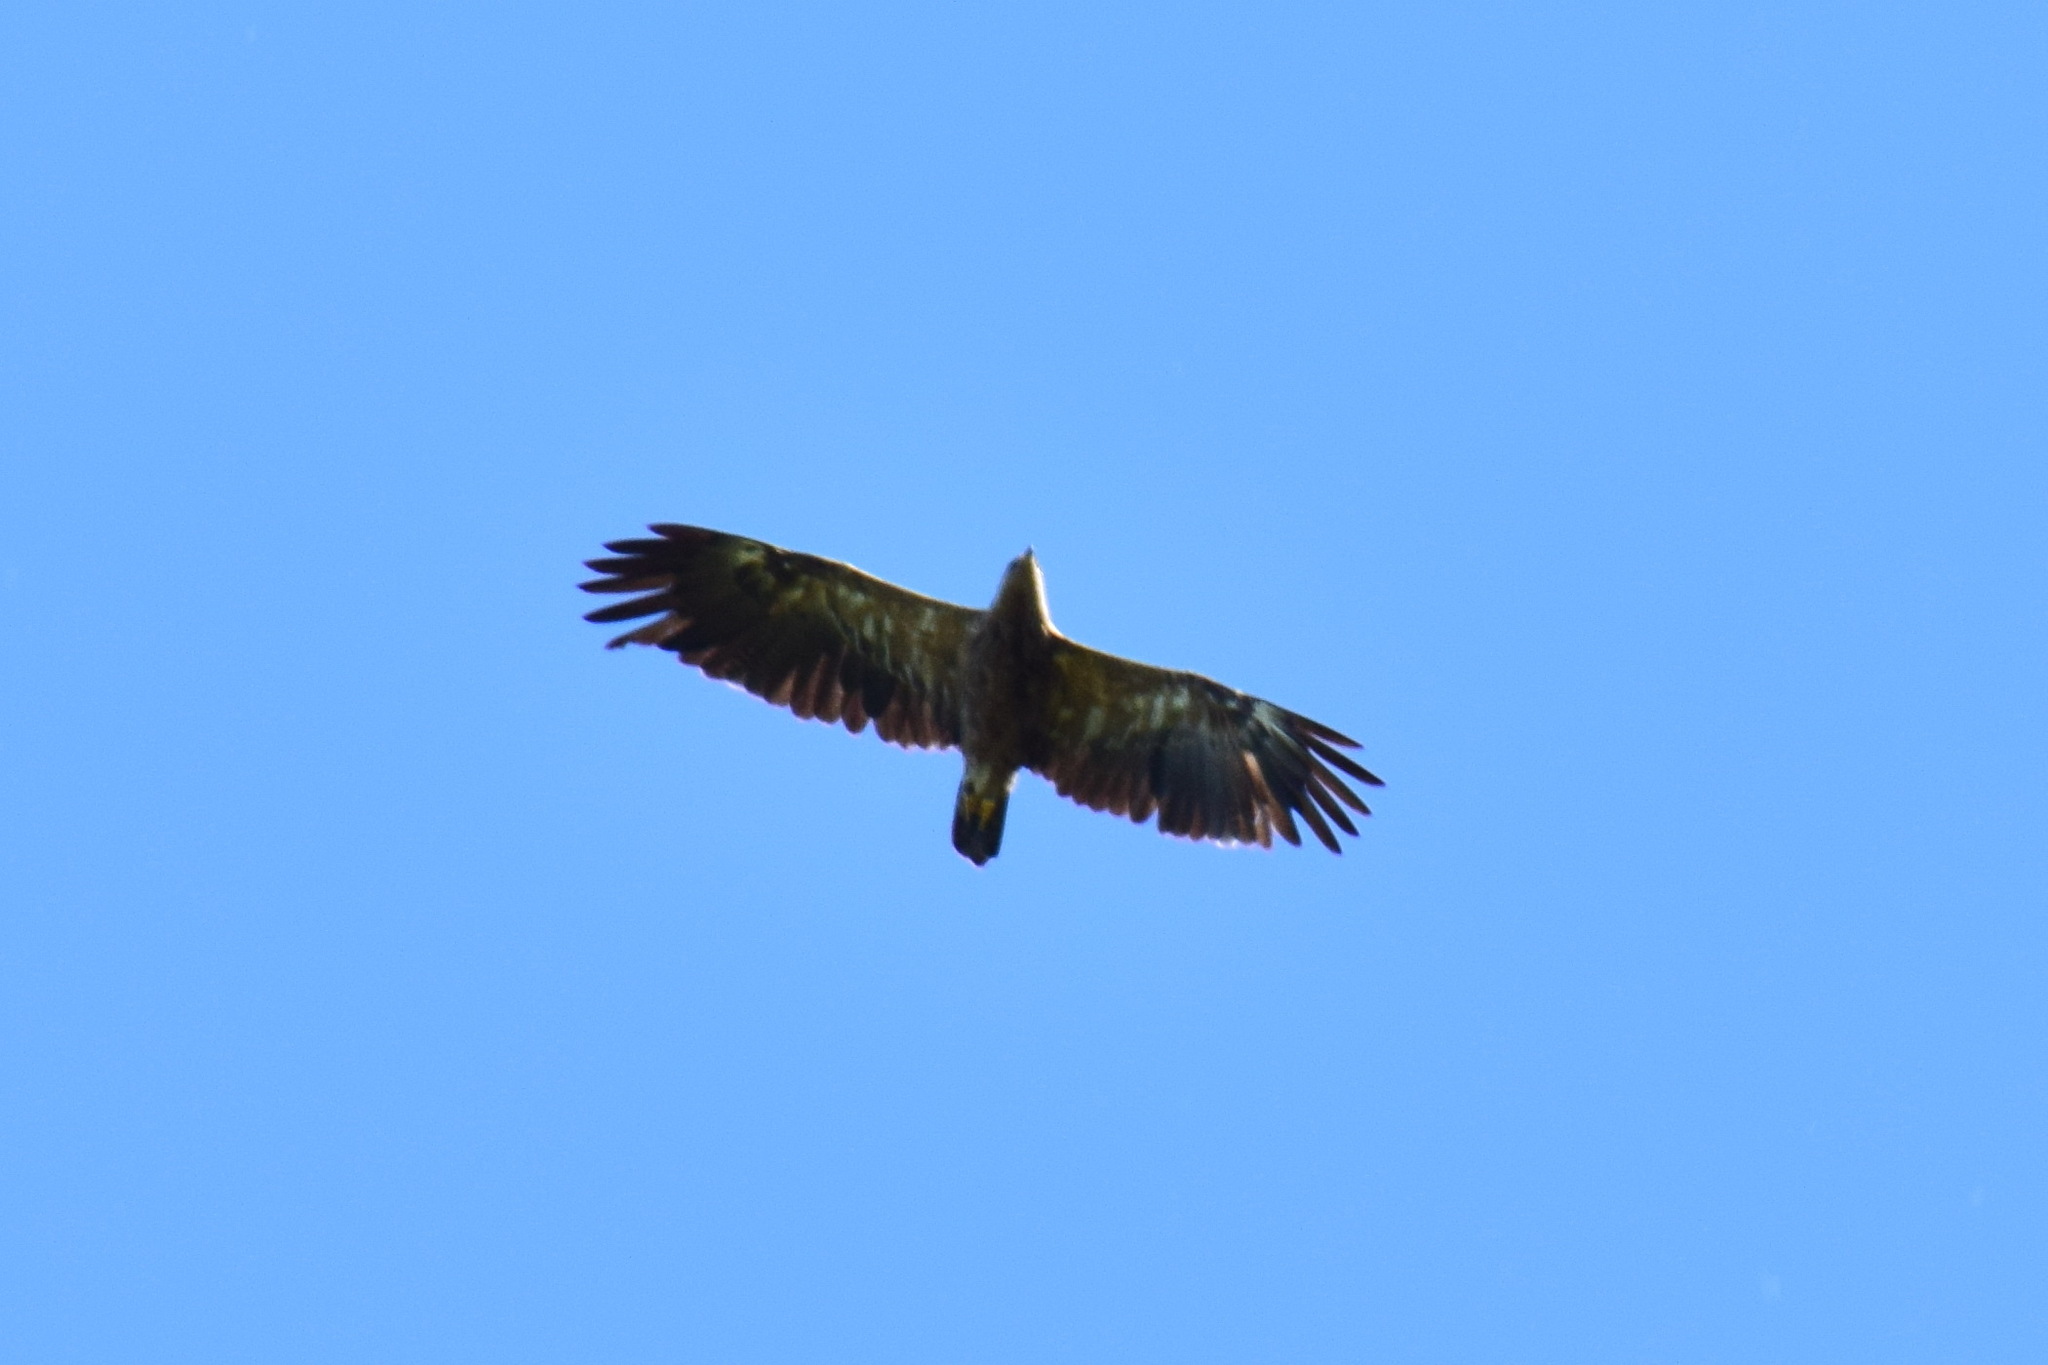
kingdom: Animalia
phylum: Chordata
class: Aves
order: Accipitriformes
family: Accipitridae
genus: Aquila
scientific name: Aquila pomarina
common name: Lesser spotted eagle
